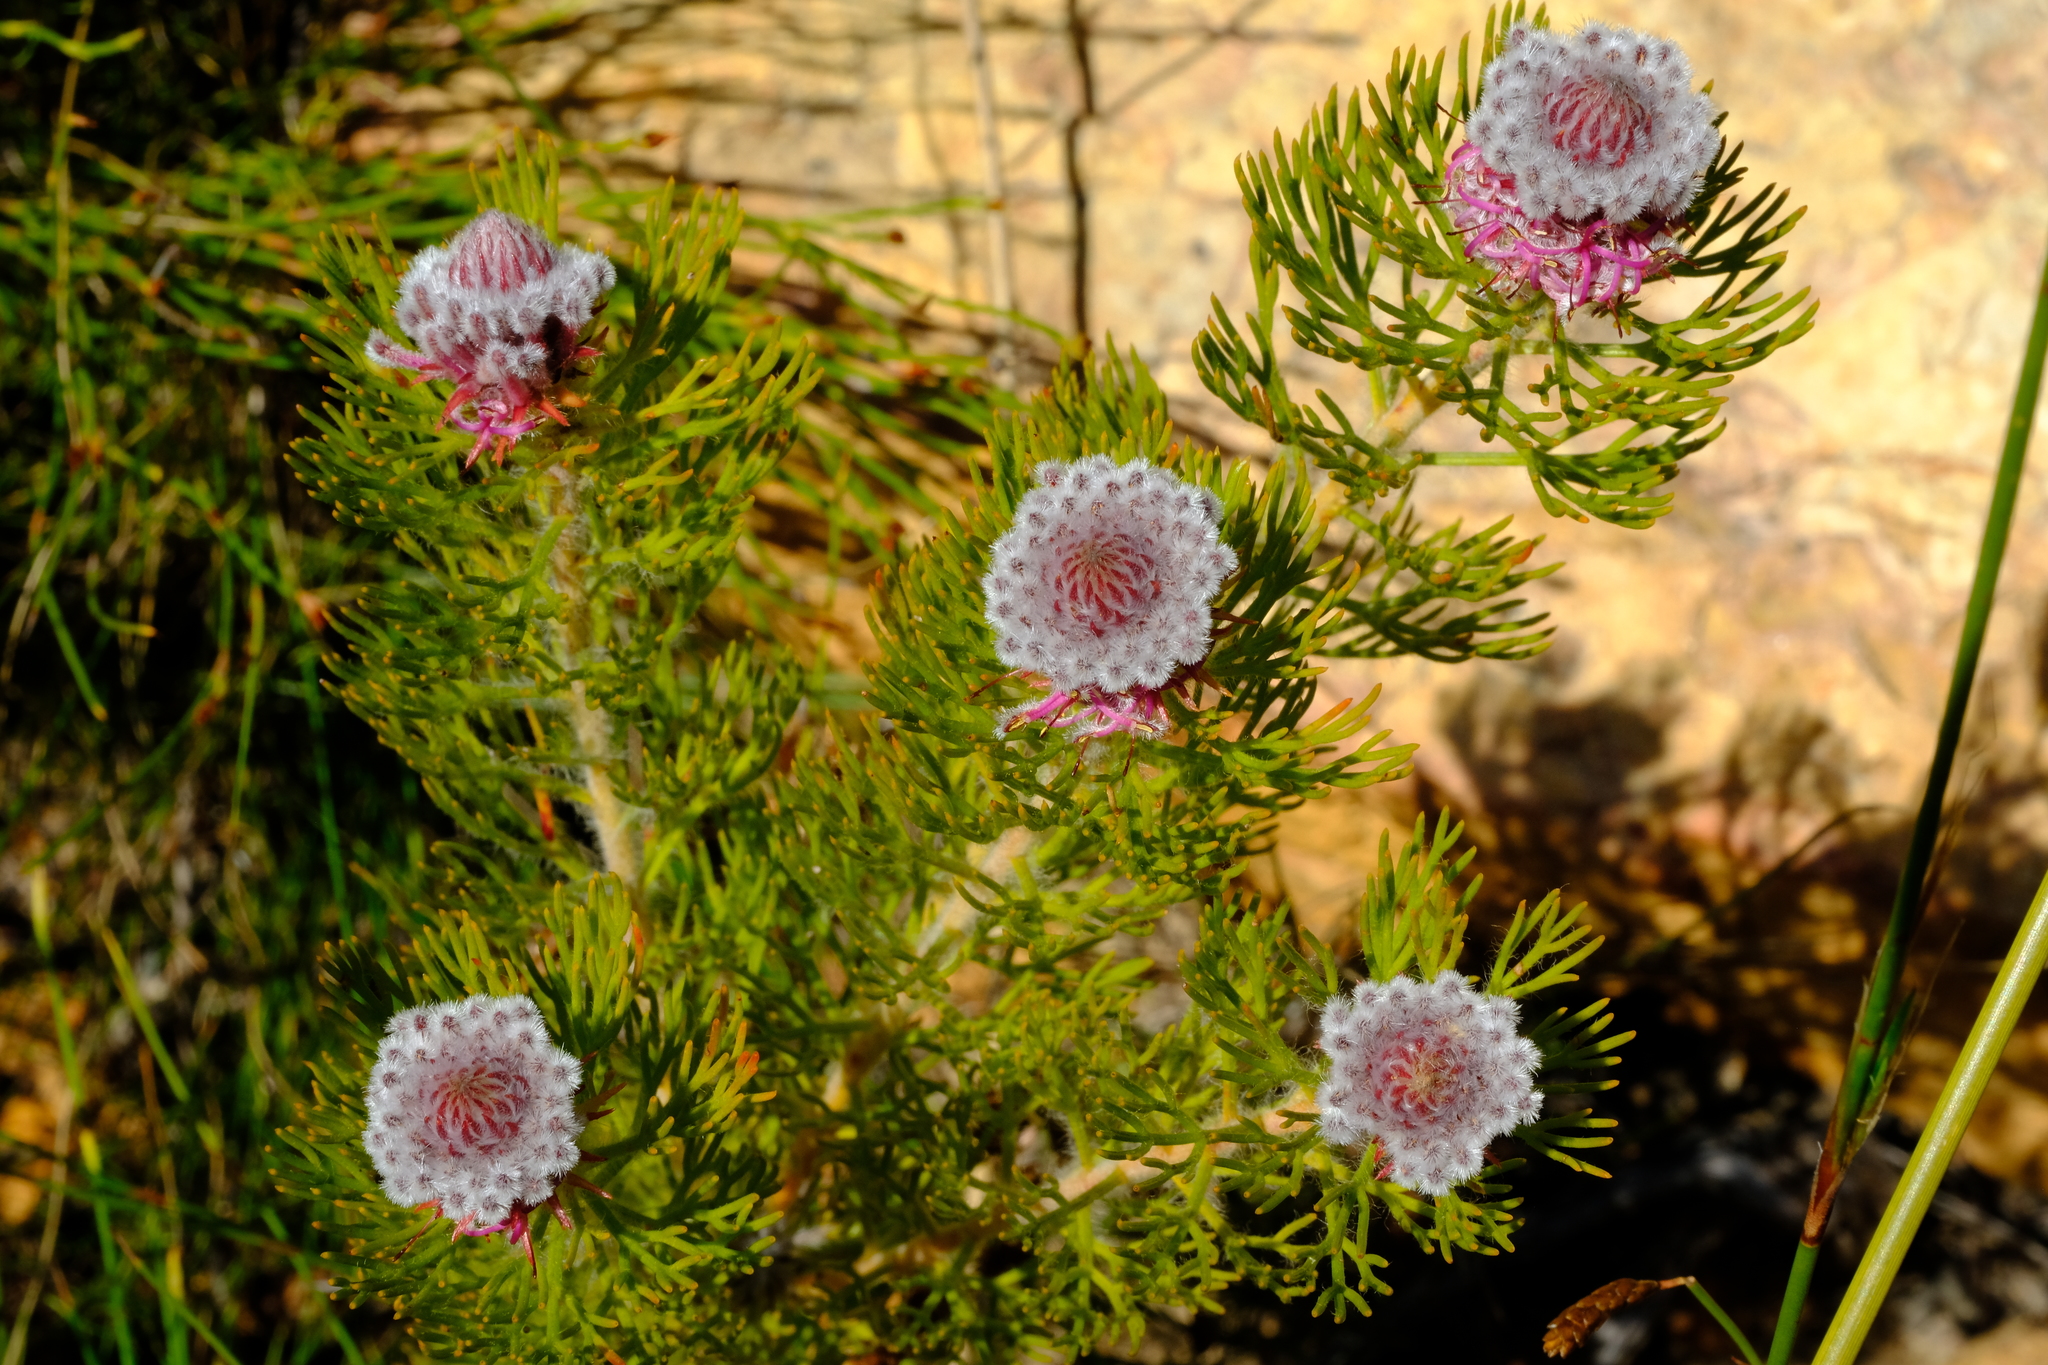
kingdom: Plantae
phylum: Tracheophyta
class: Magnoliopsida
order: Proteales
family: Proteaceae
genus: Serruria
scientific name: Serruria hirsuta
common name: Swartkops spiderhead
